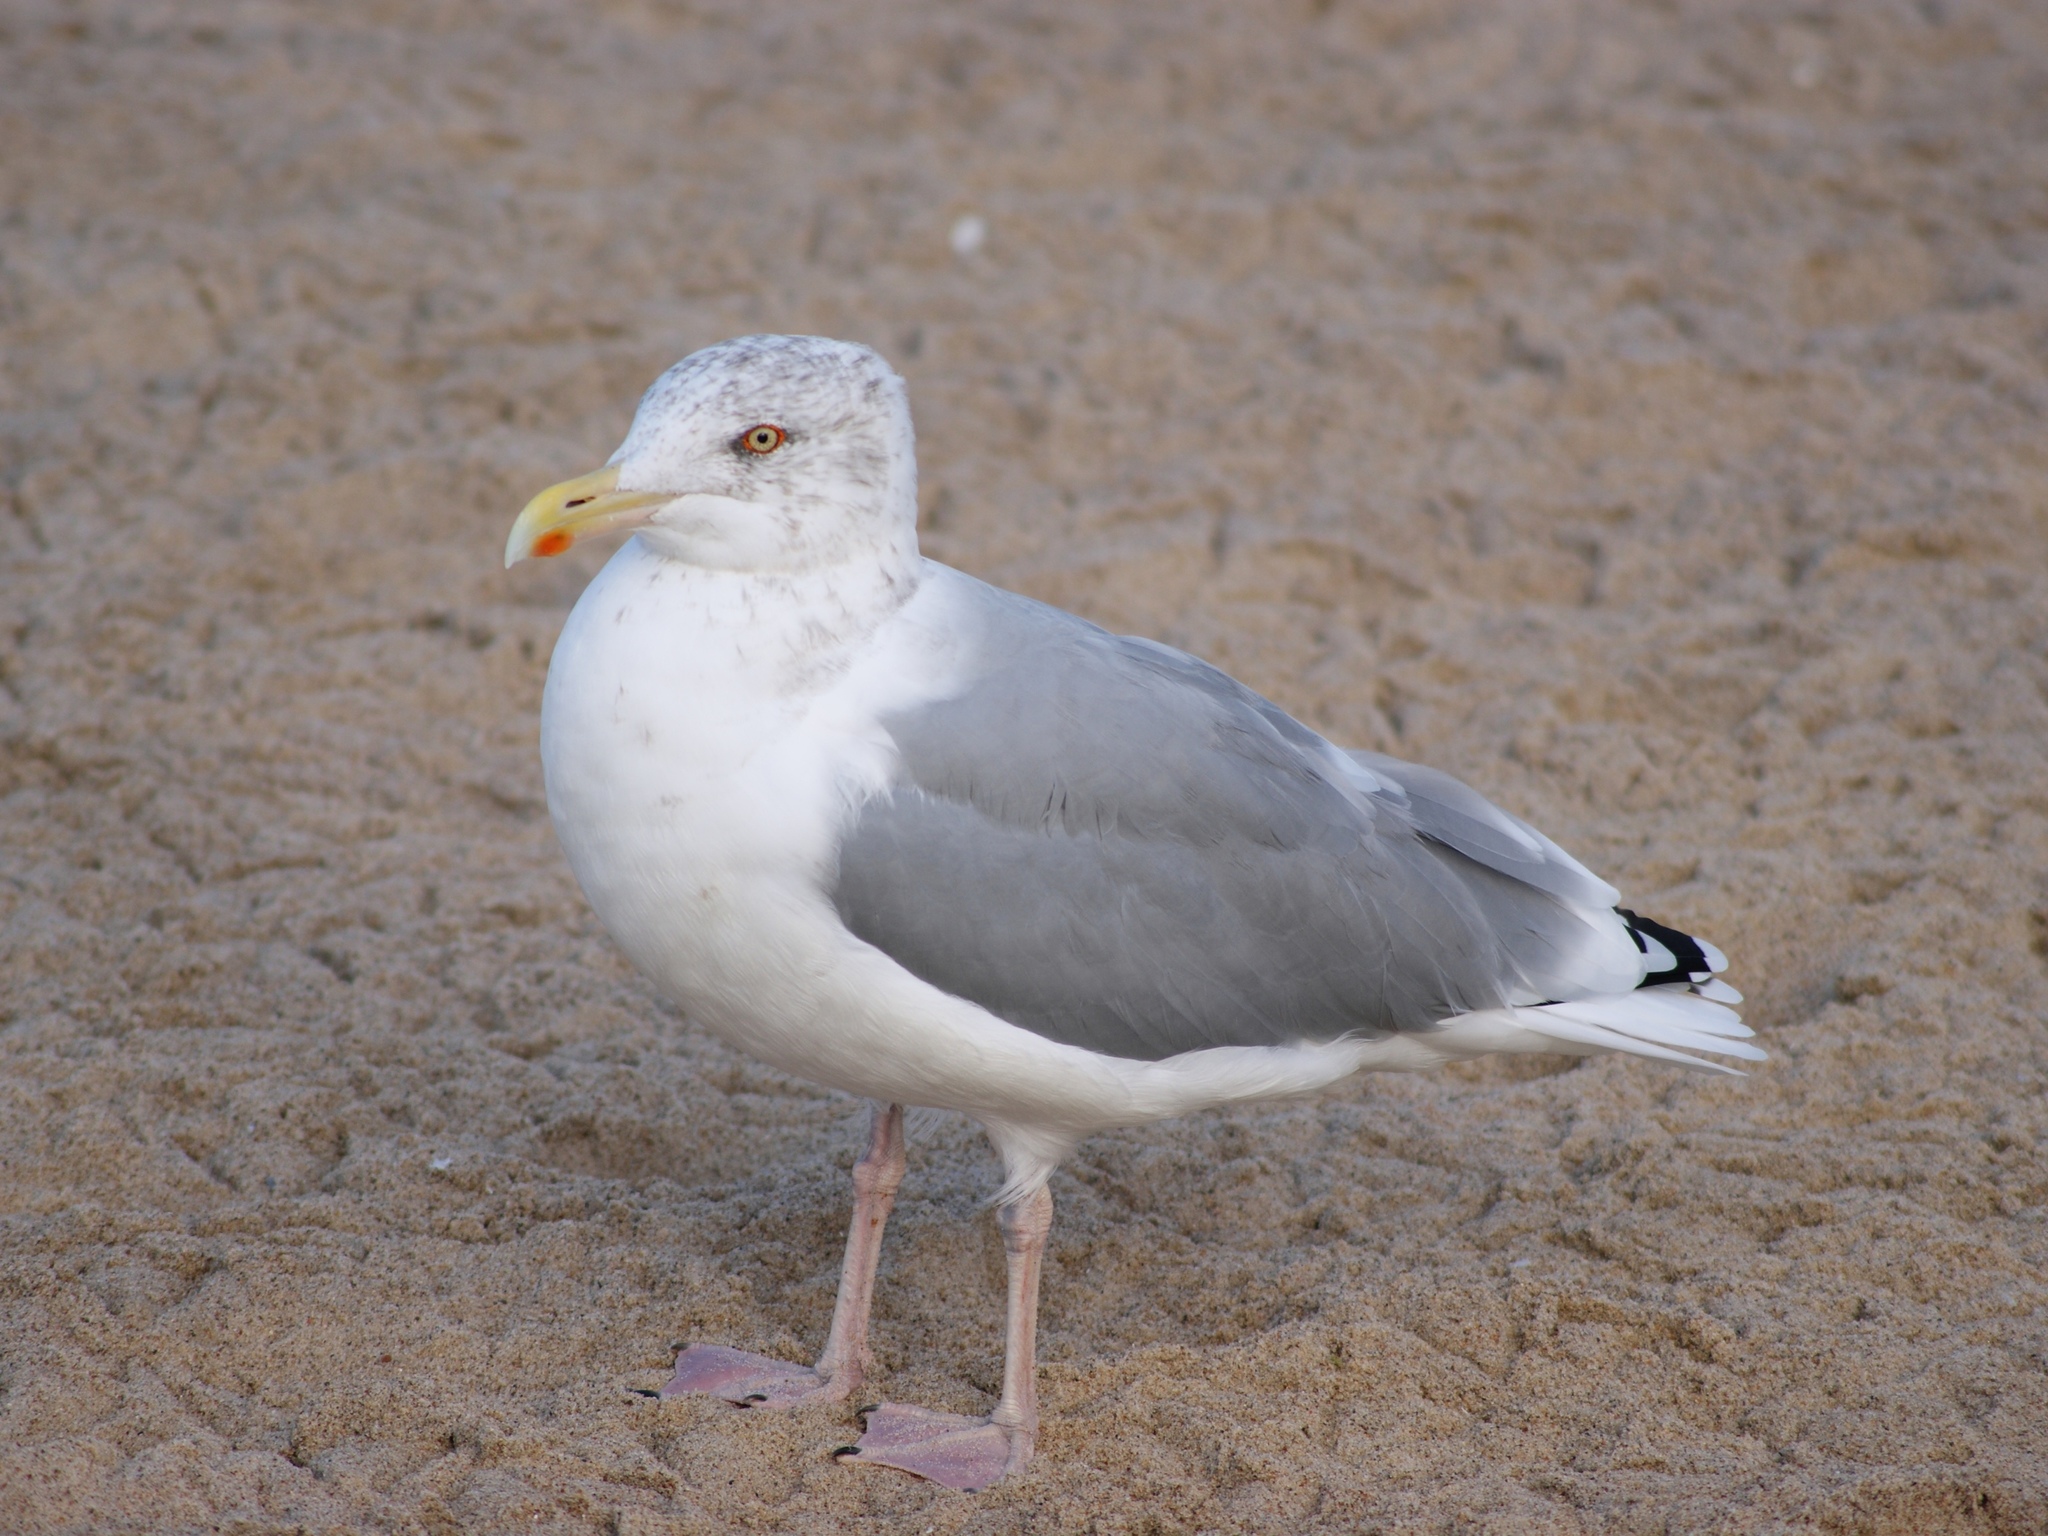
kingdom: Animalia
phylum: Chordata
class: Aves
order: Charadriiformes
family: Laridae
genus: Larus
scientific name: Larus argentatus
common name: Herring gull
